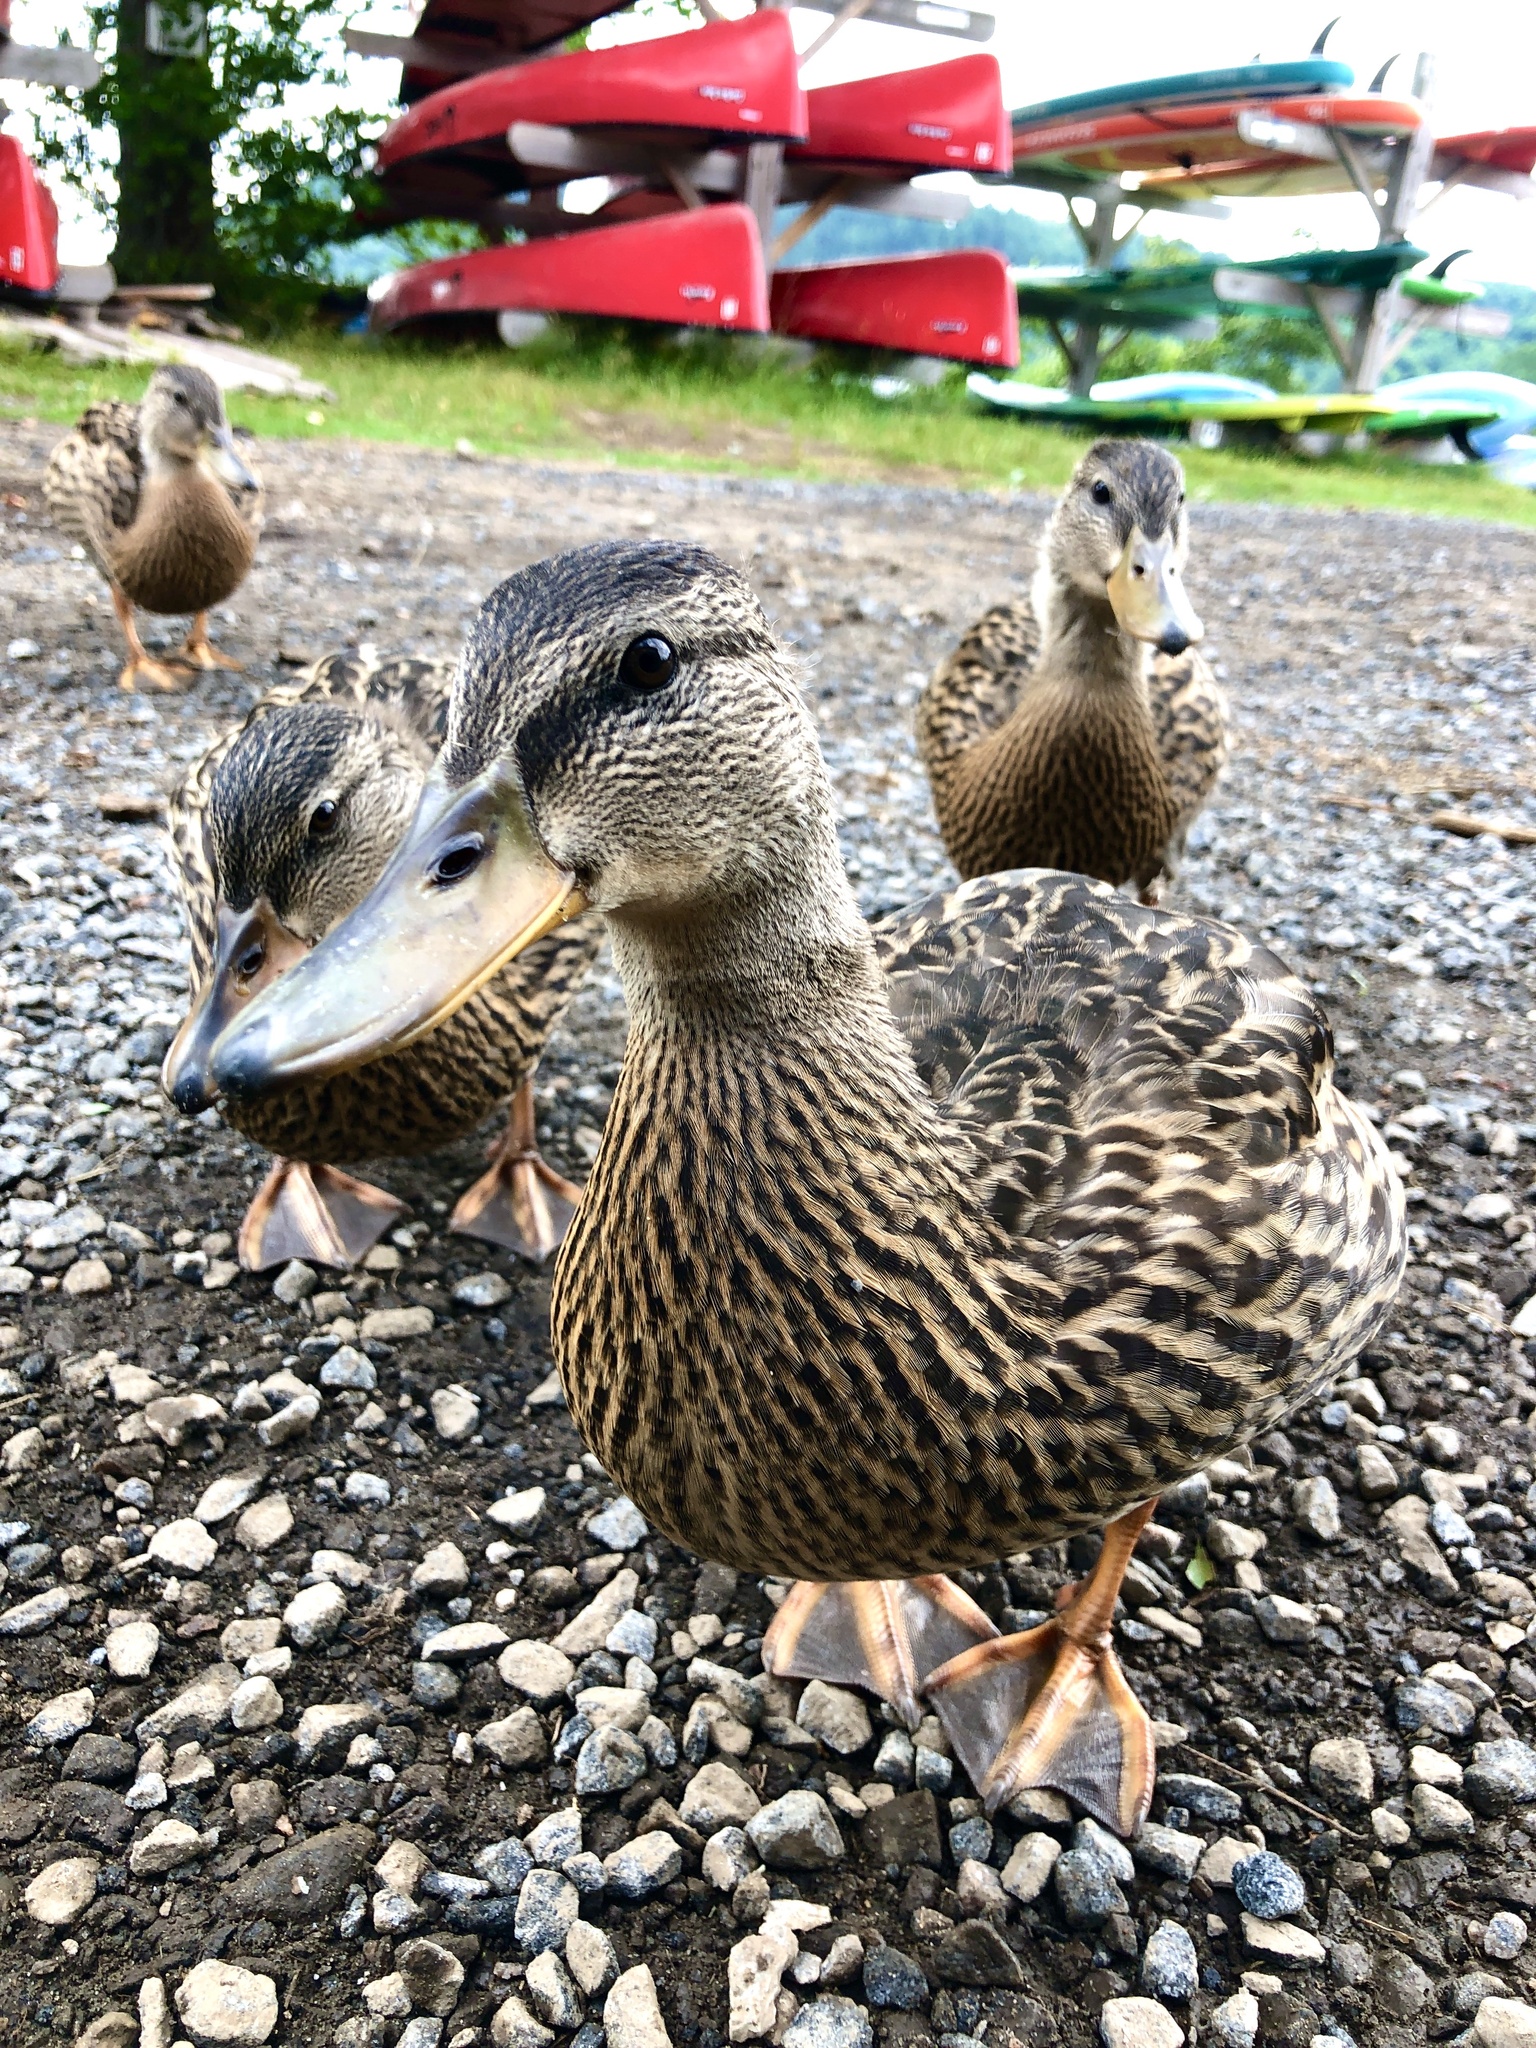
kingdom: Animalia
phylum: Chordata
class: Aves
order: Anseriformes
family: Anatidae
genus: Anas
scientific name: Anas platyrhynchos
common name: Mallard
